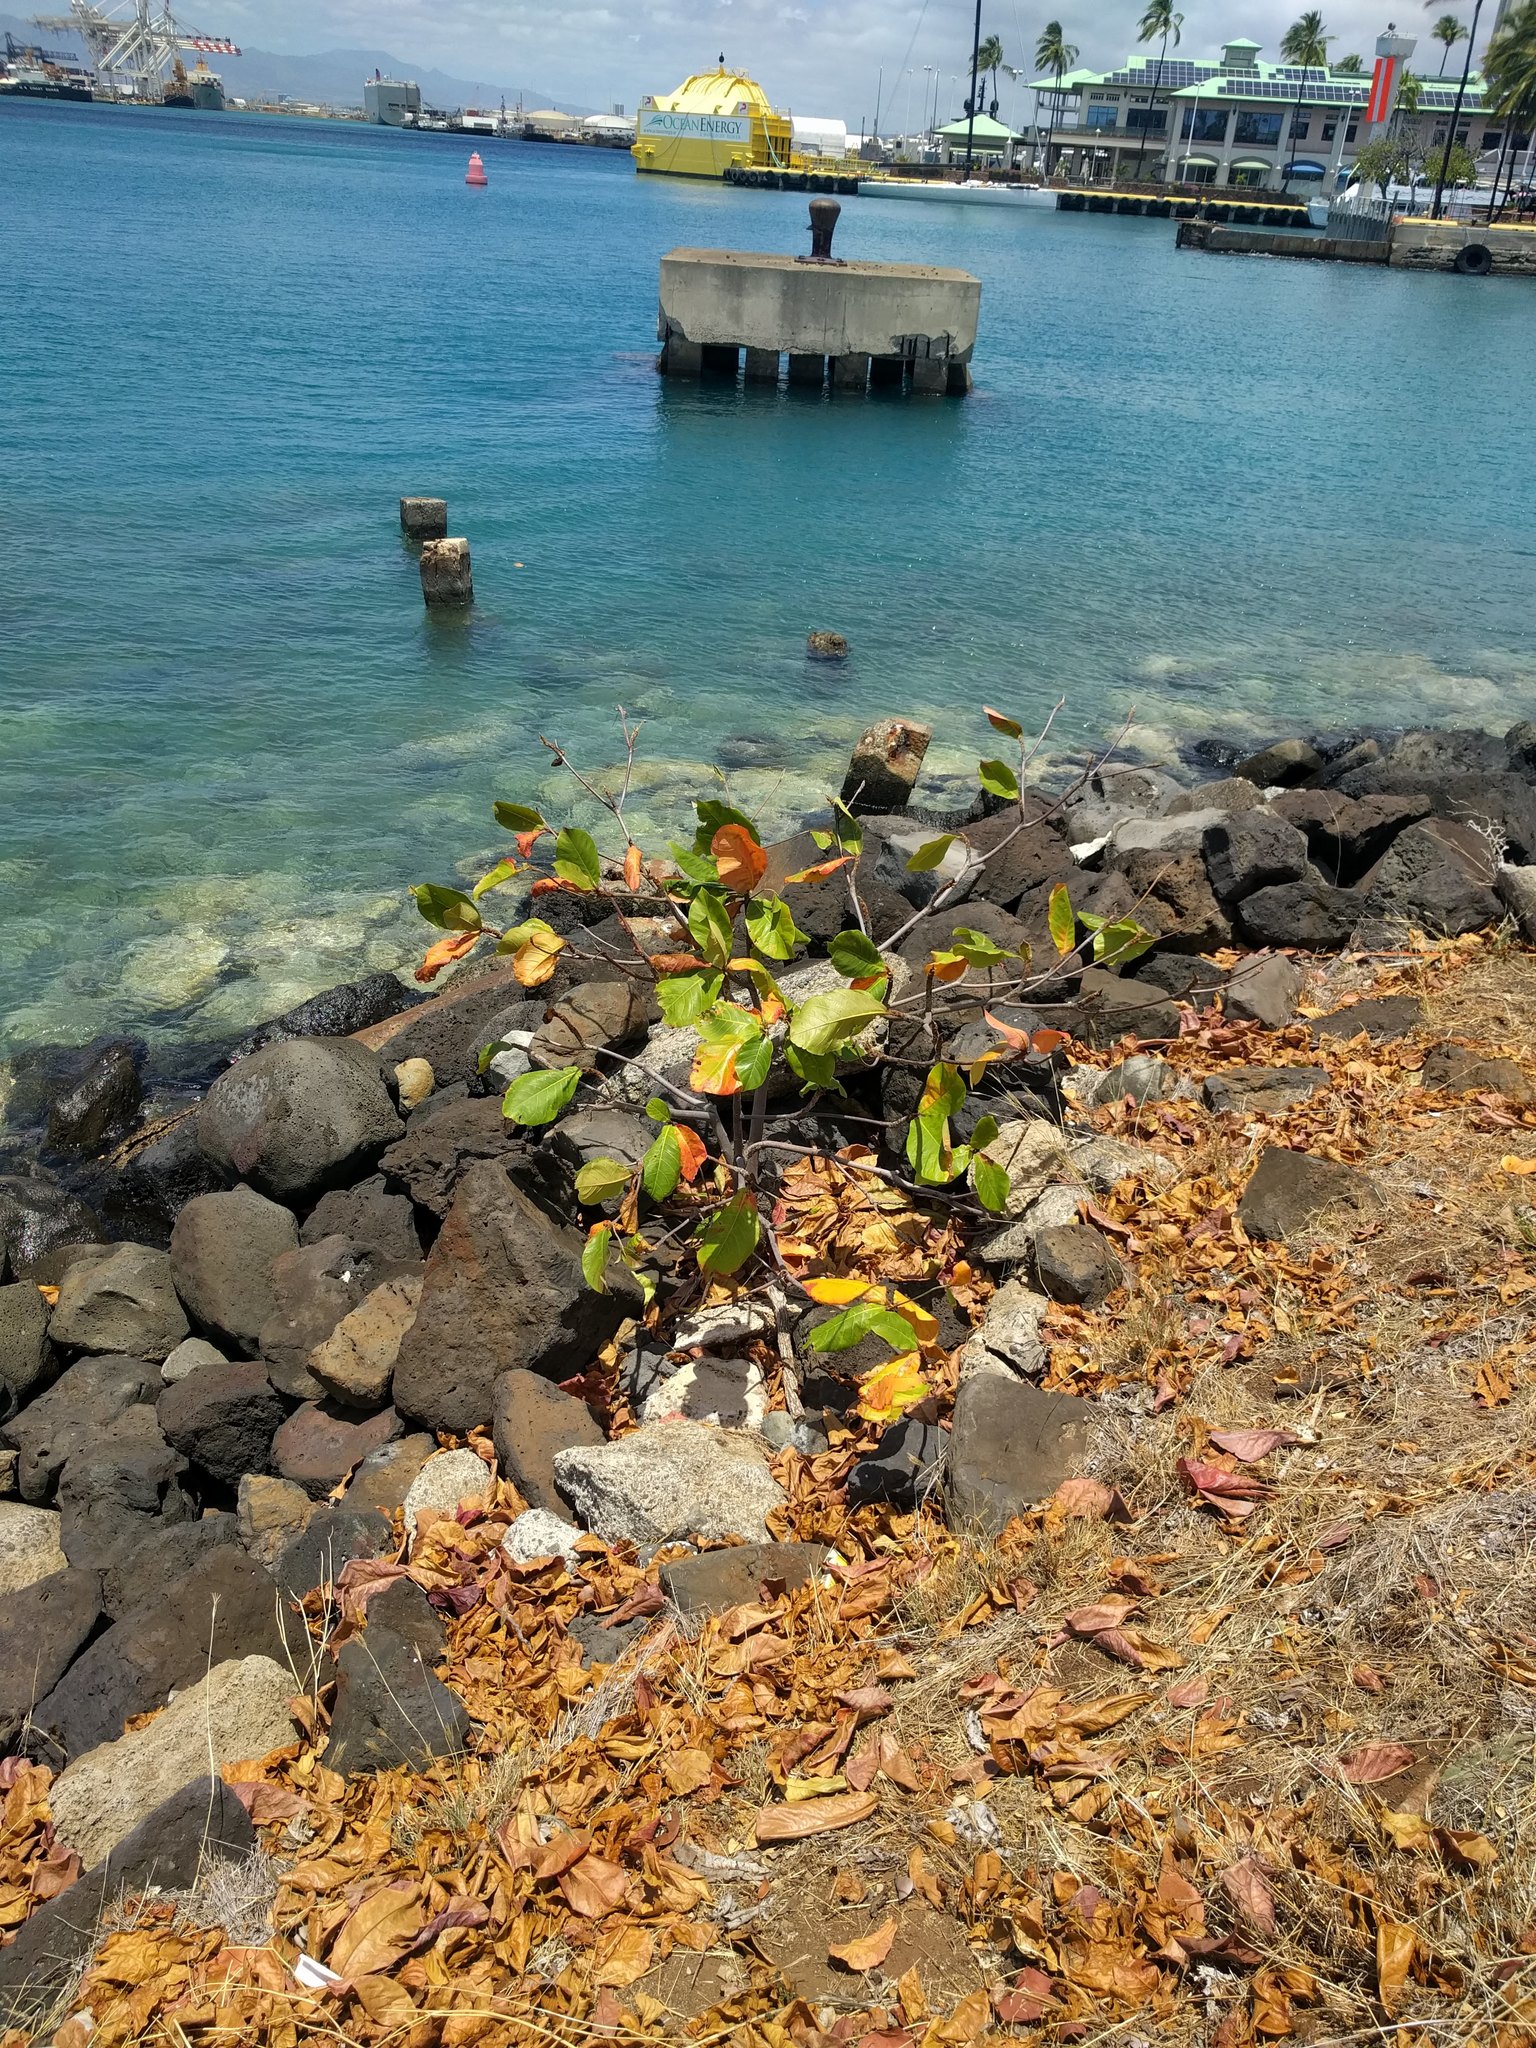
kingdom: Plantae
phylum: Tracheophyta
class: Magnoliopsida
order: Myrtales
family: Combretaceae
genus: Terminalia
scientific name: Terminalia catappa
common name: Tropical almond
